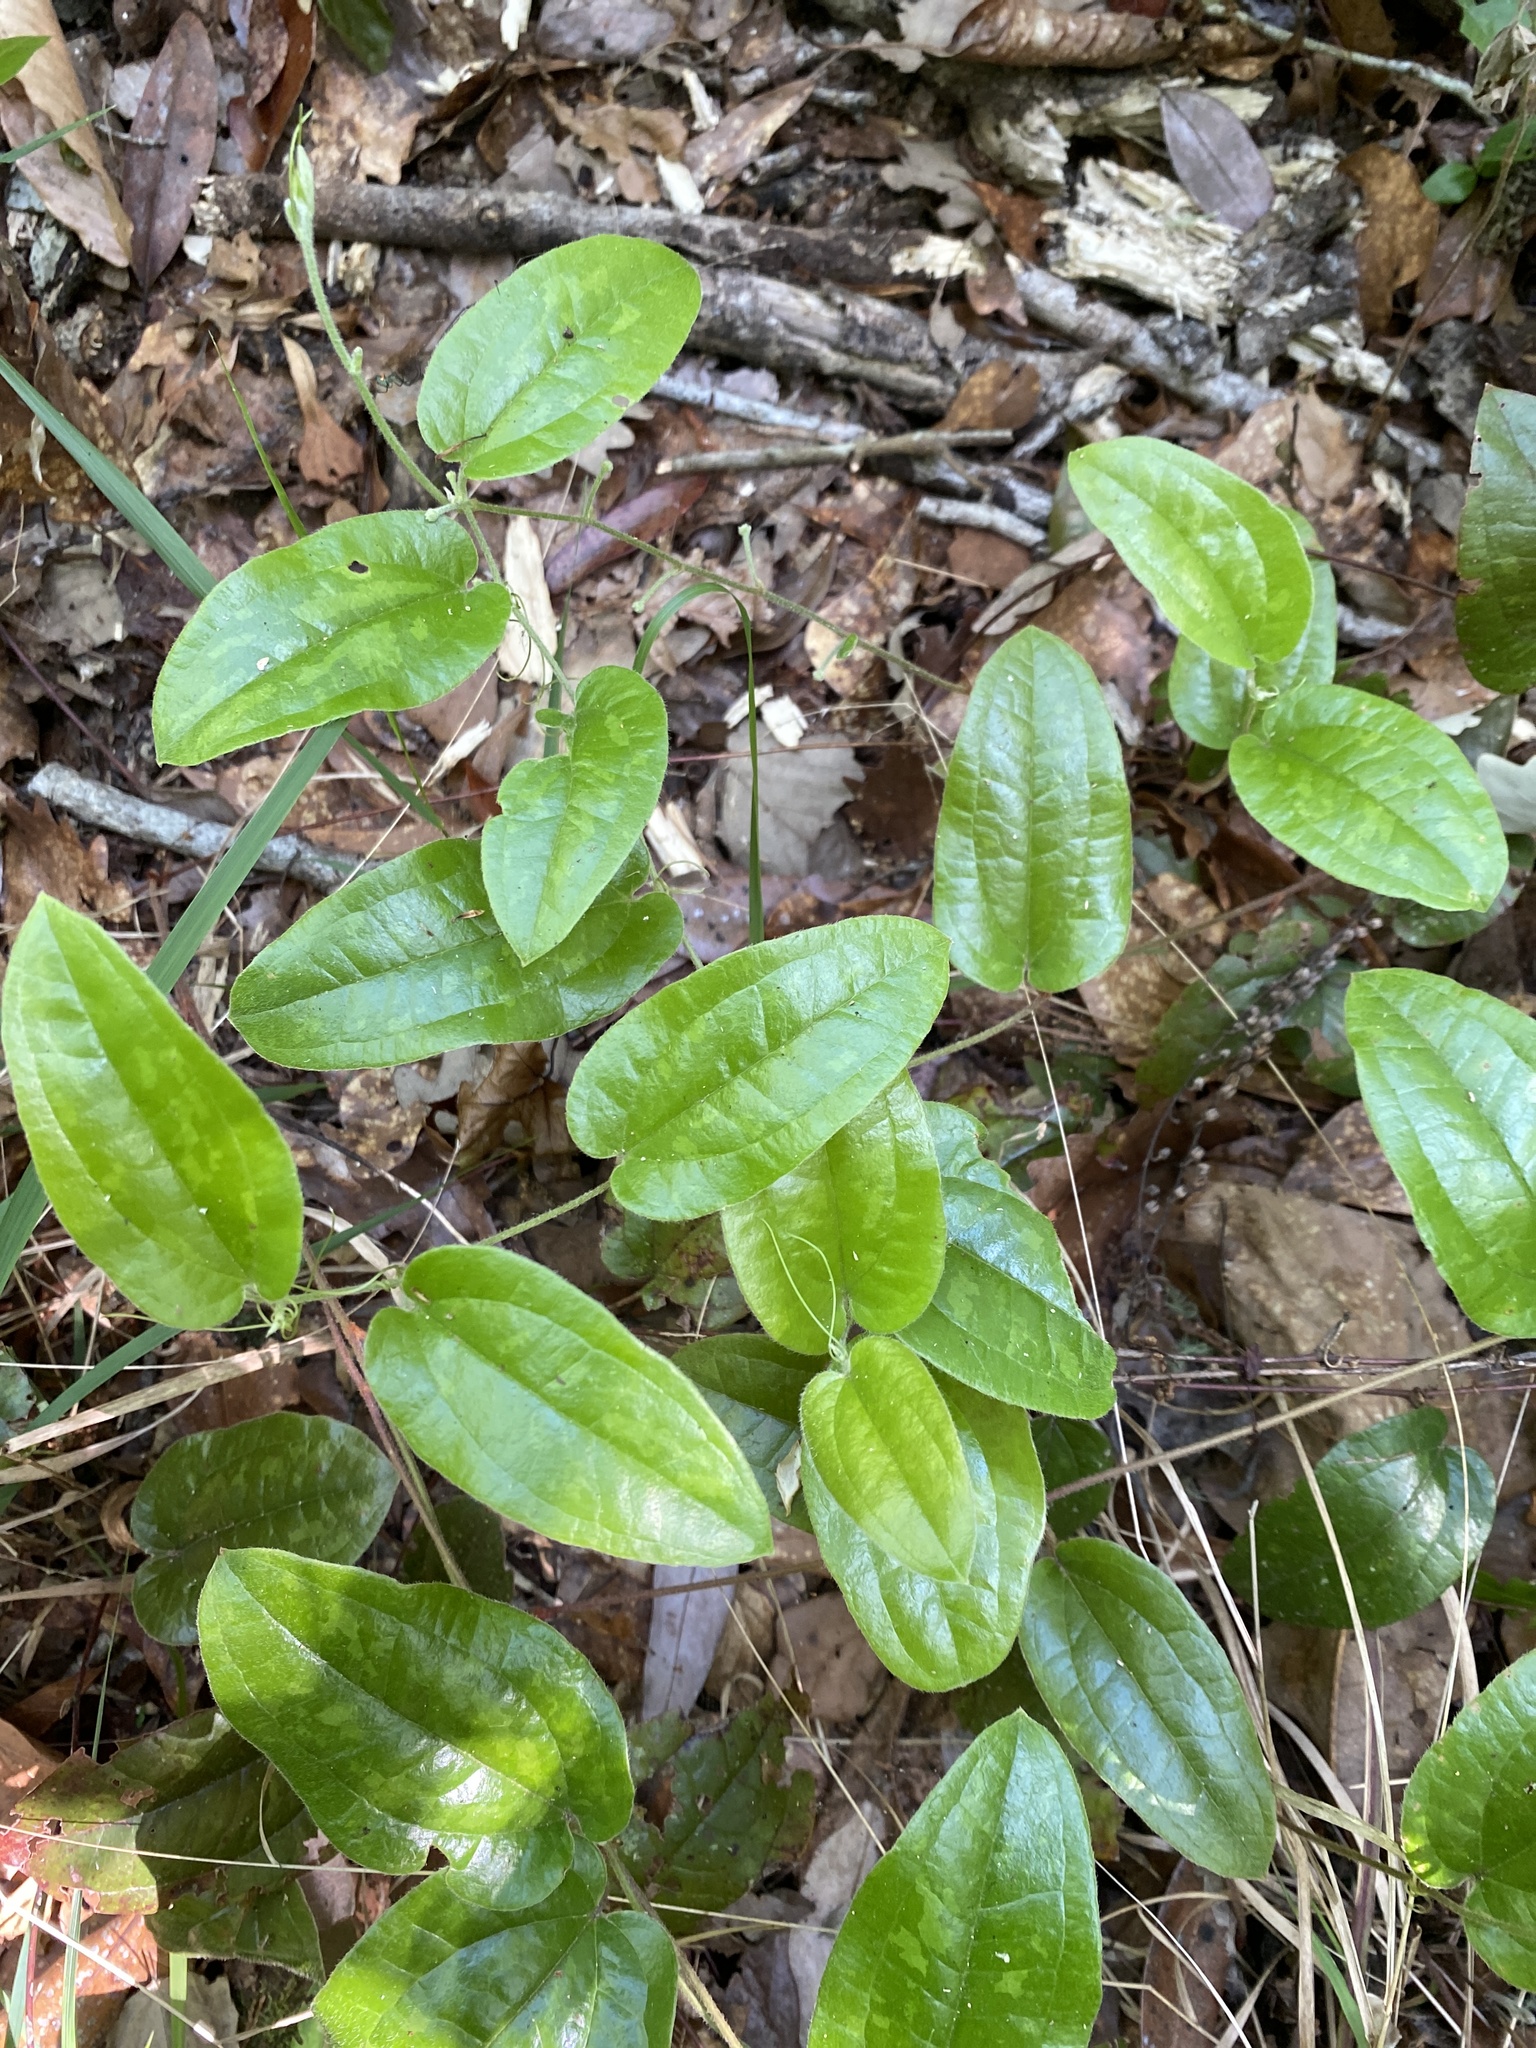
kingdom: Plantae
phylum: Tracheophyta
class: Liliopsida
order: Liliales
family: Smilacaceae
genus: Smilax
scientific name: Smilax pumila
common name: Sarsaparilla-vine
